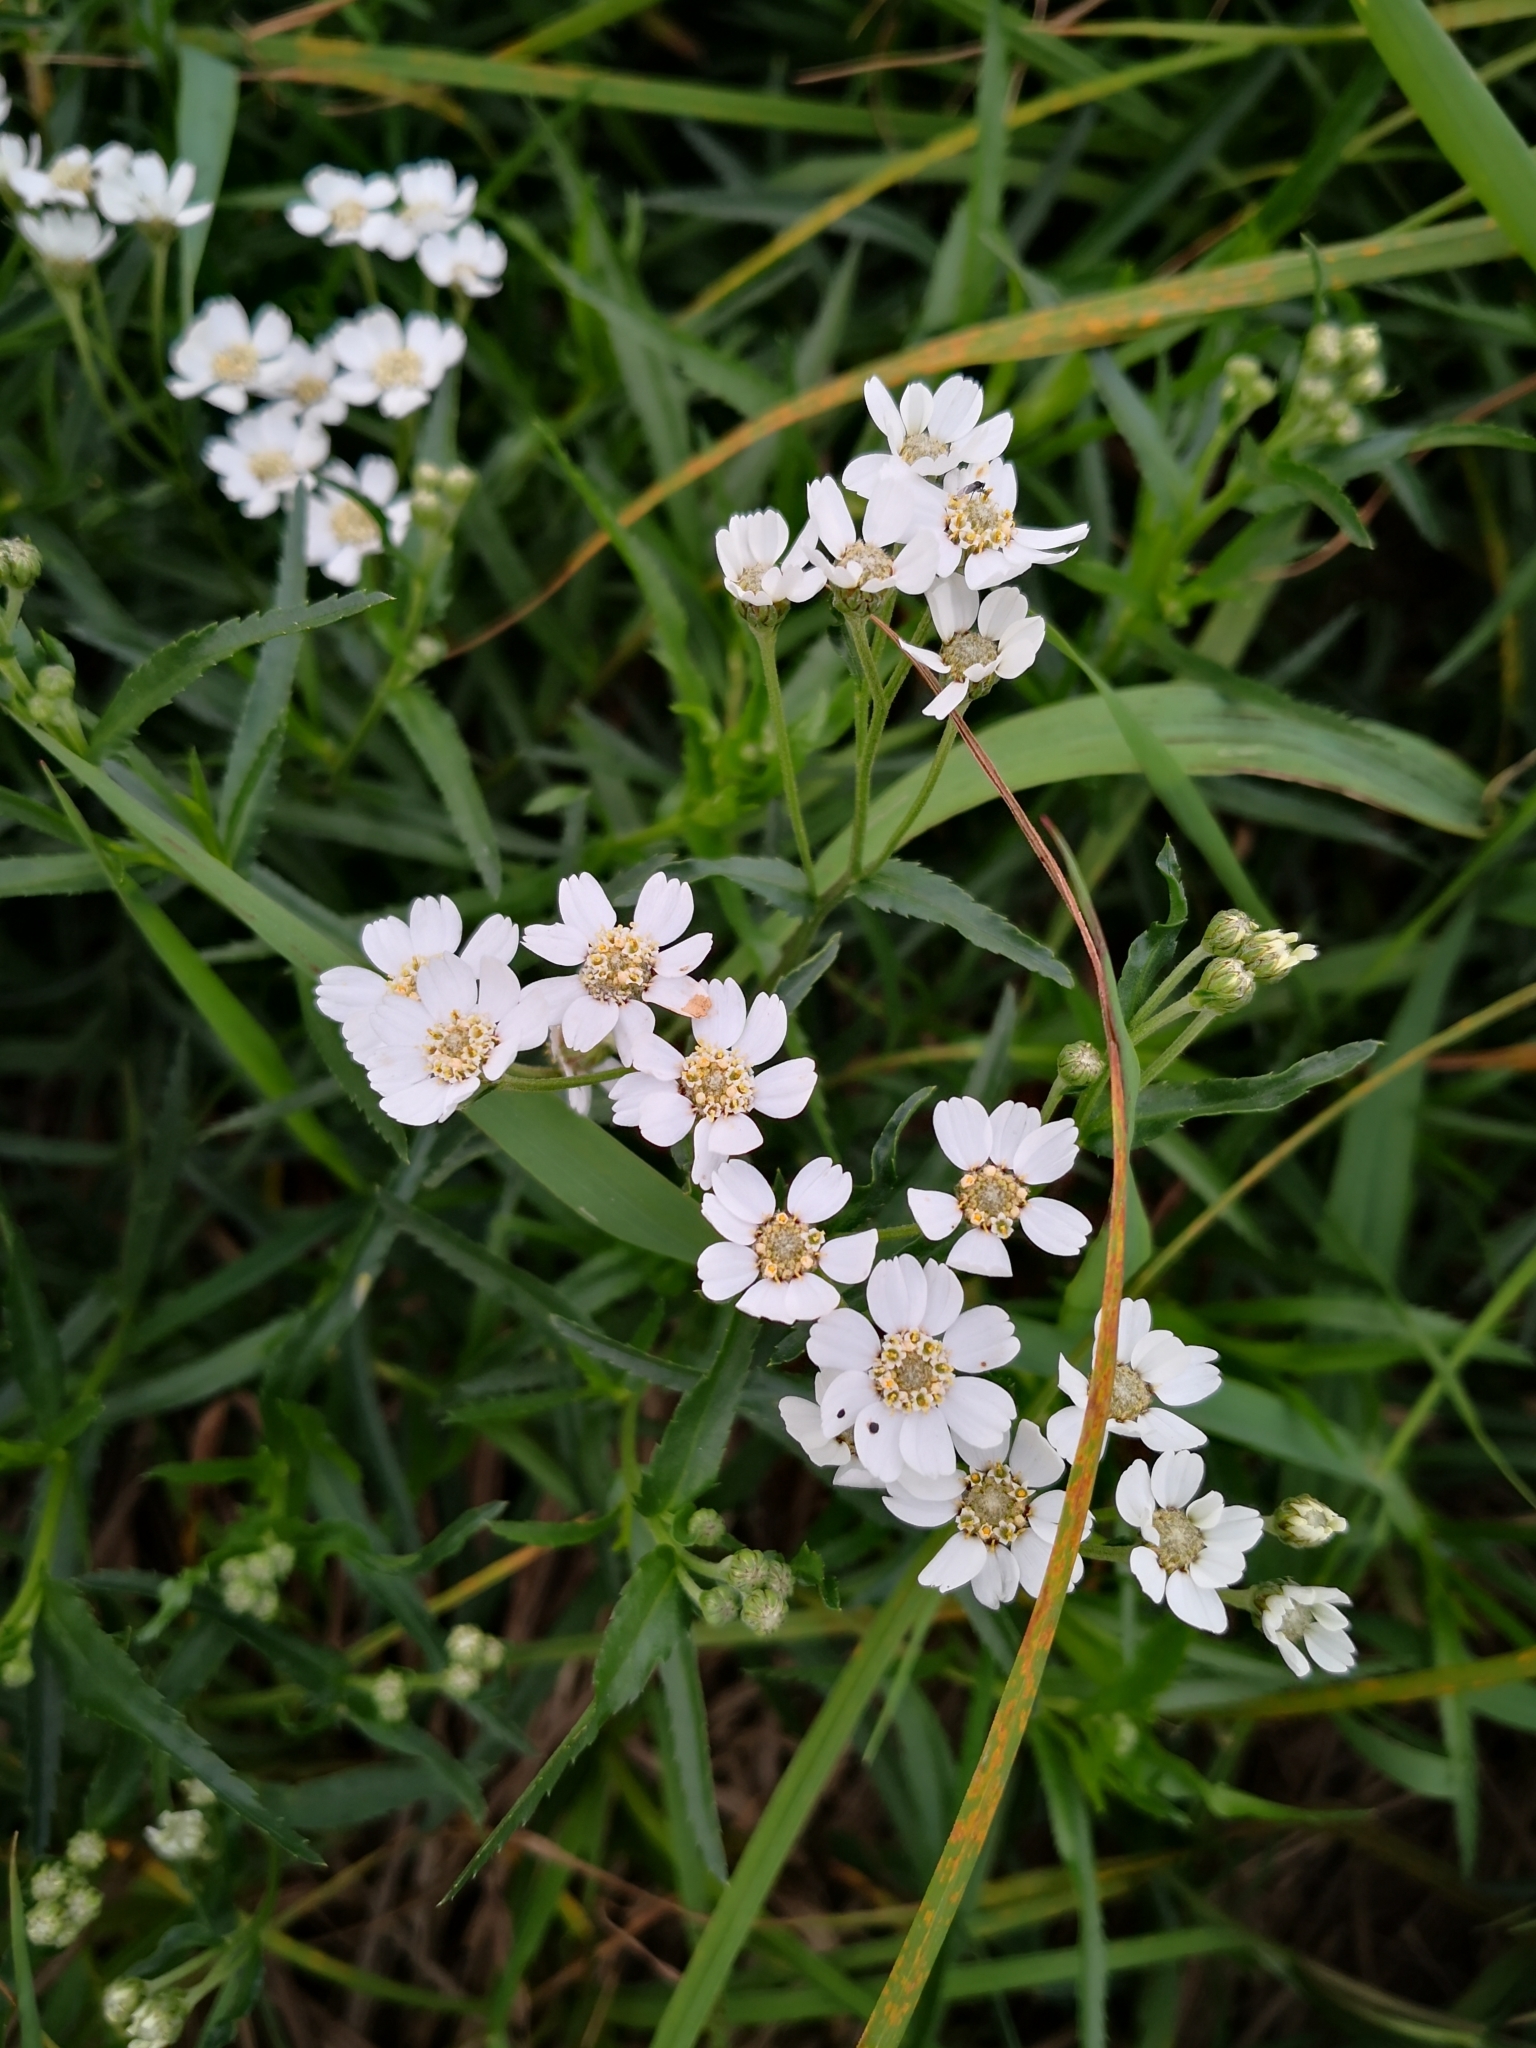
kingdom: Plantae
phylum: Tracheophyta
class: Magnoliopsida
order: Asterales
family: Asteraceae
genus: Achillea
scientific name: Achillea ptarmica
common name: Sneezeweed
